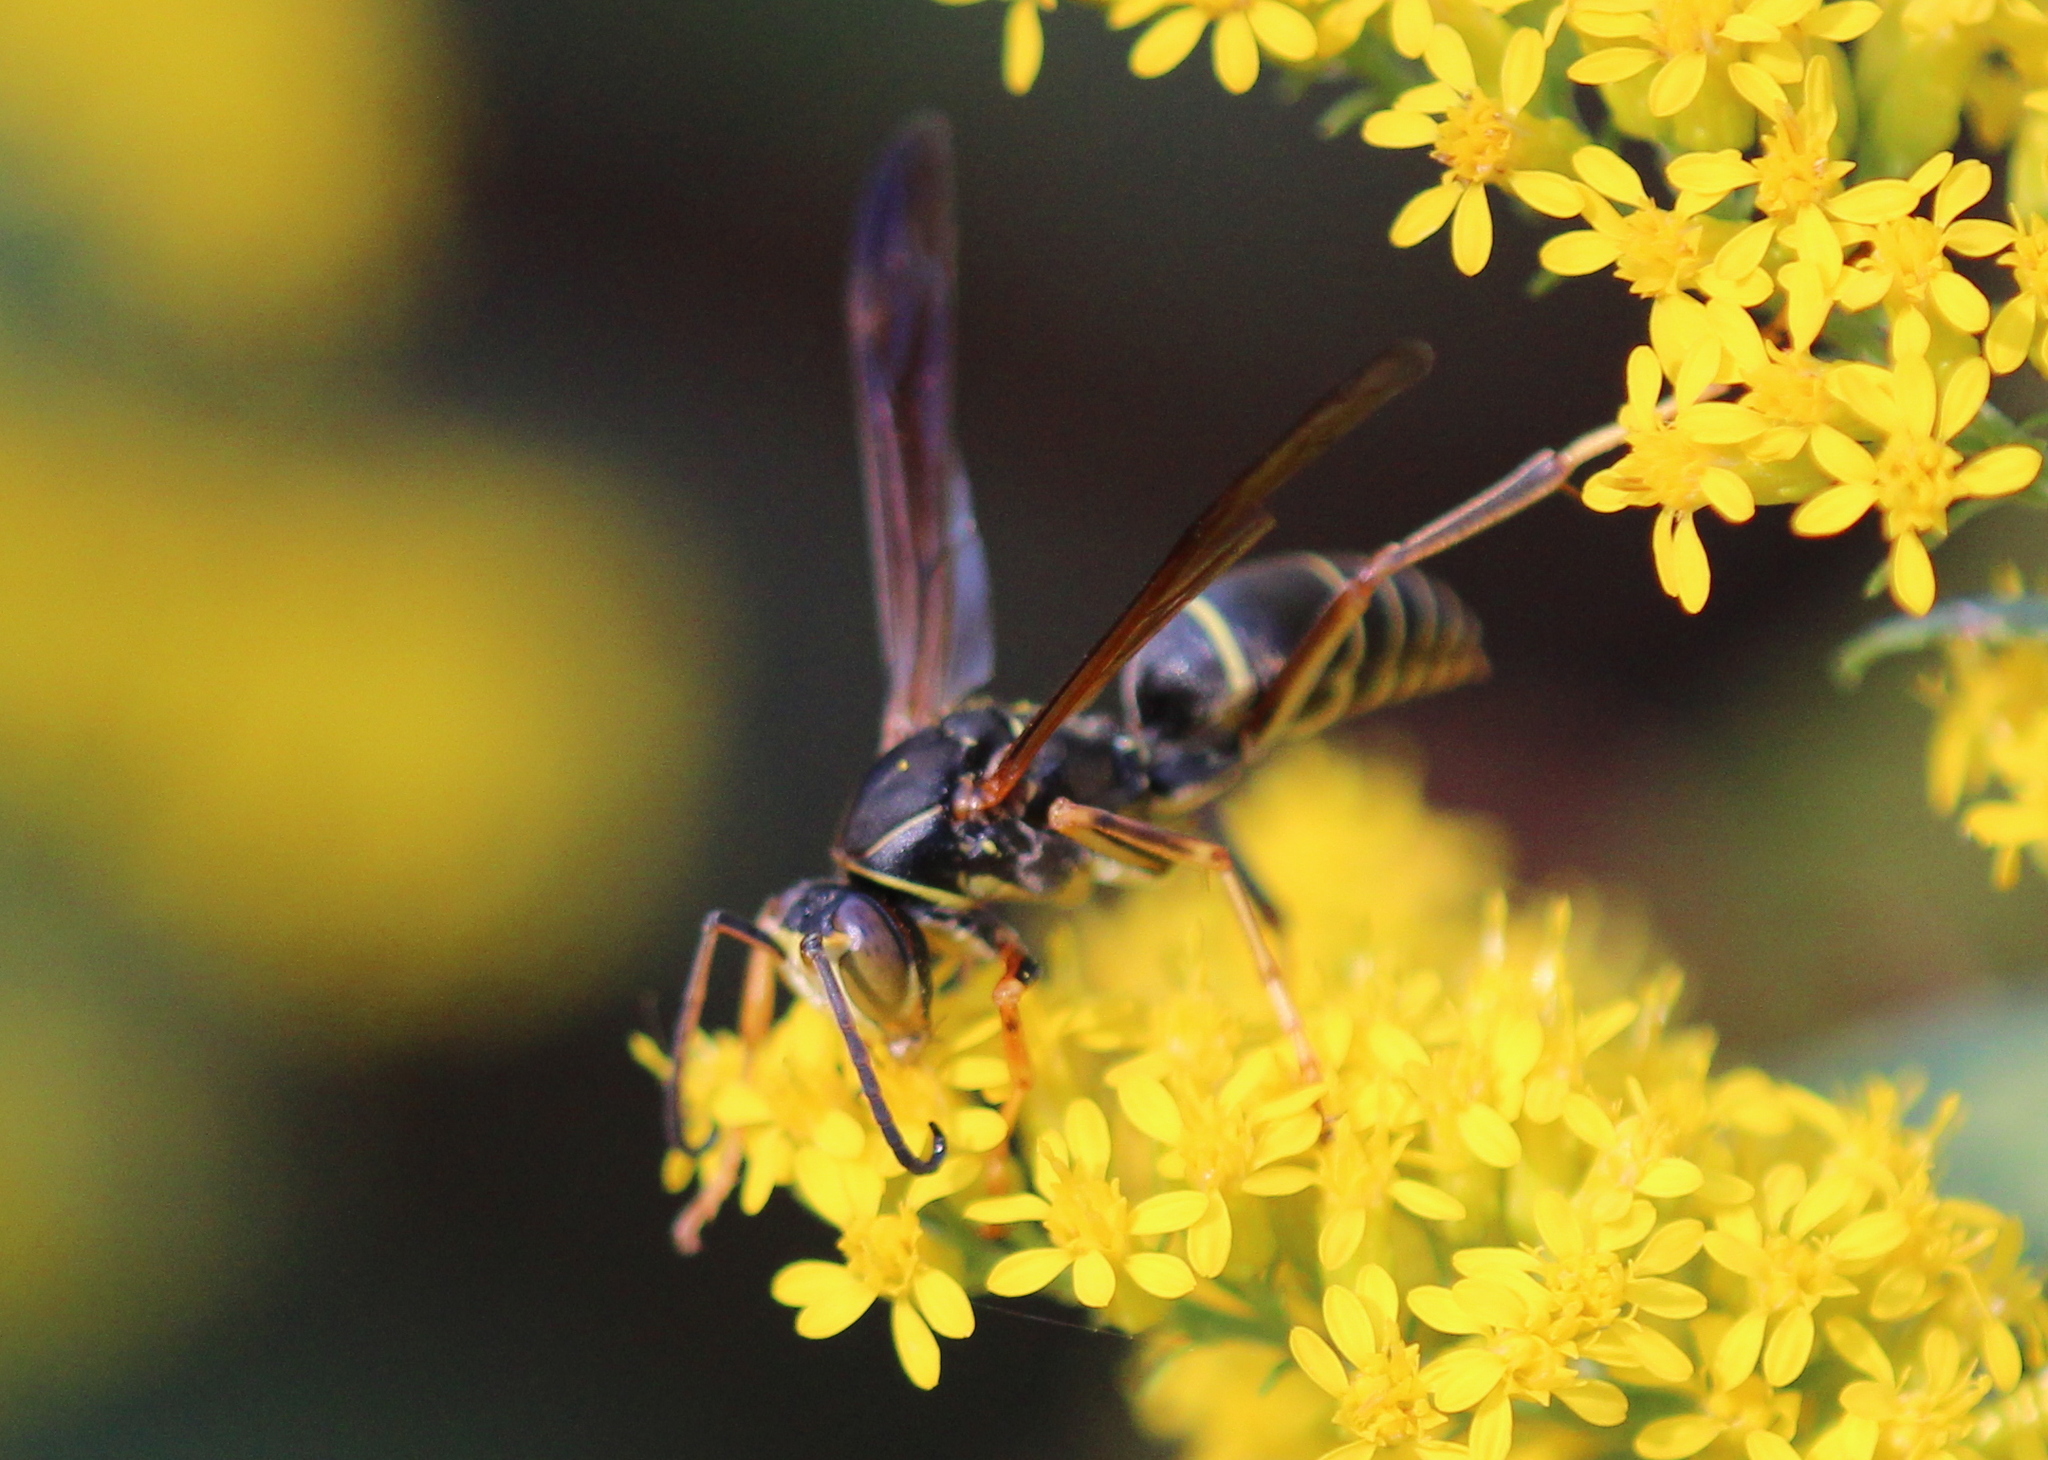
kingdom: Animalia
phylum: Arthropoda
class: Insecta
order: Hymenoptera
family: Eumenidae
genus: Polistes
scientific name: Polistes fuscatus
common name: Dark paper wasp
